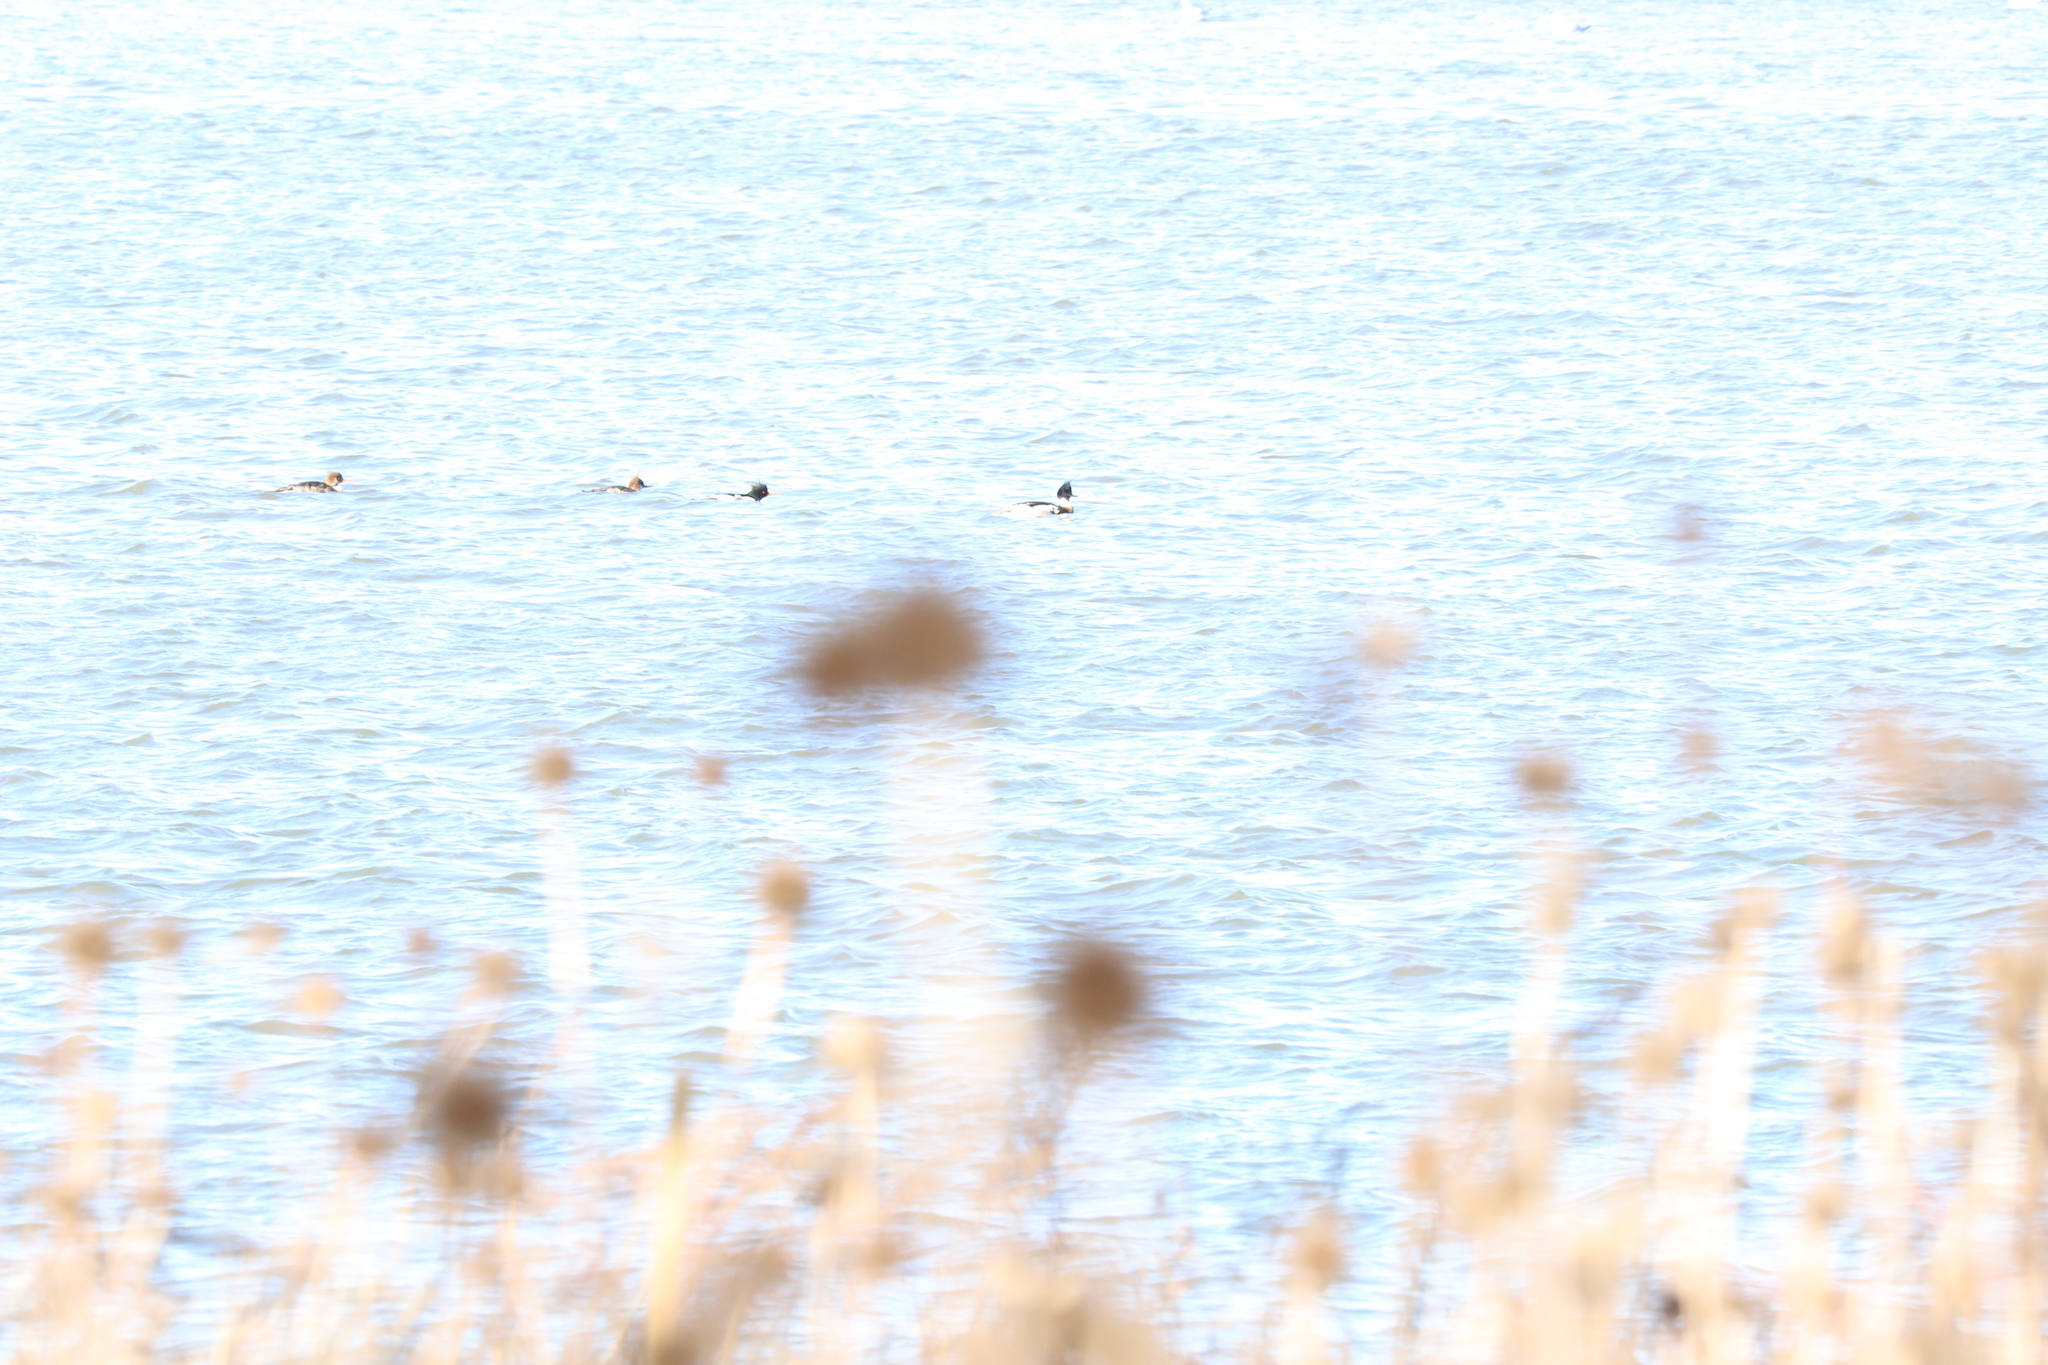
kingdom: Animalia
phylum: Chordata
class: Aves
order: Anseriformes
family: Anatidae
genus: Mergus
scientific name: Mergus serrator
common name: Red-breasted merganser
